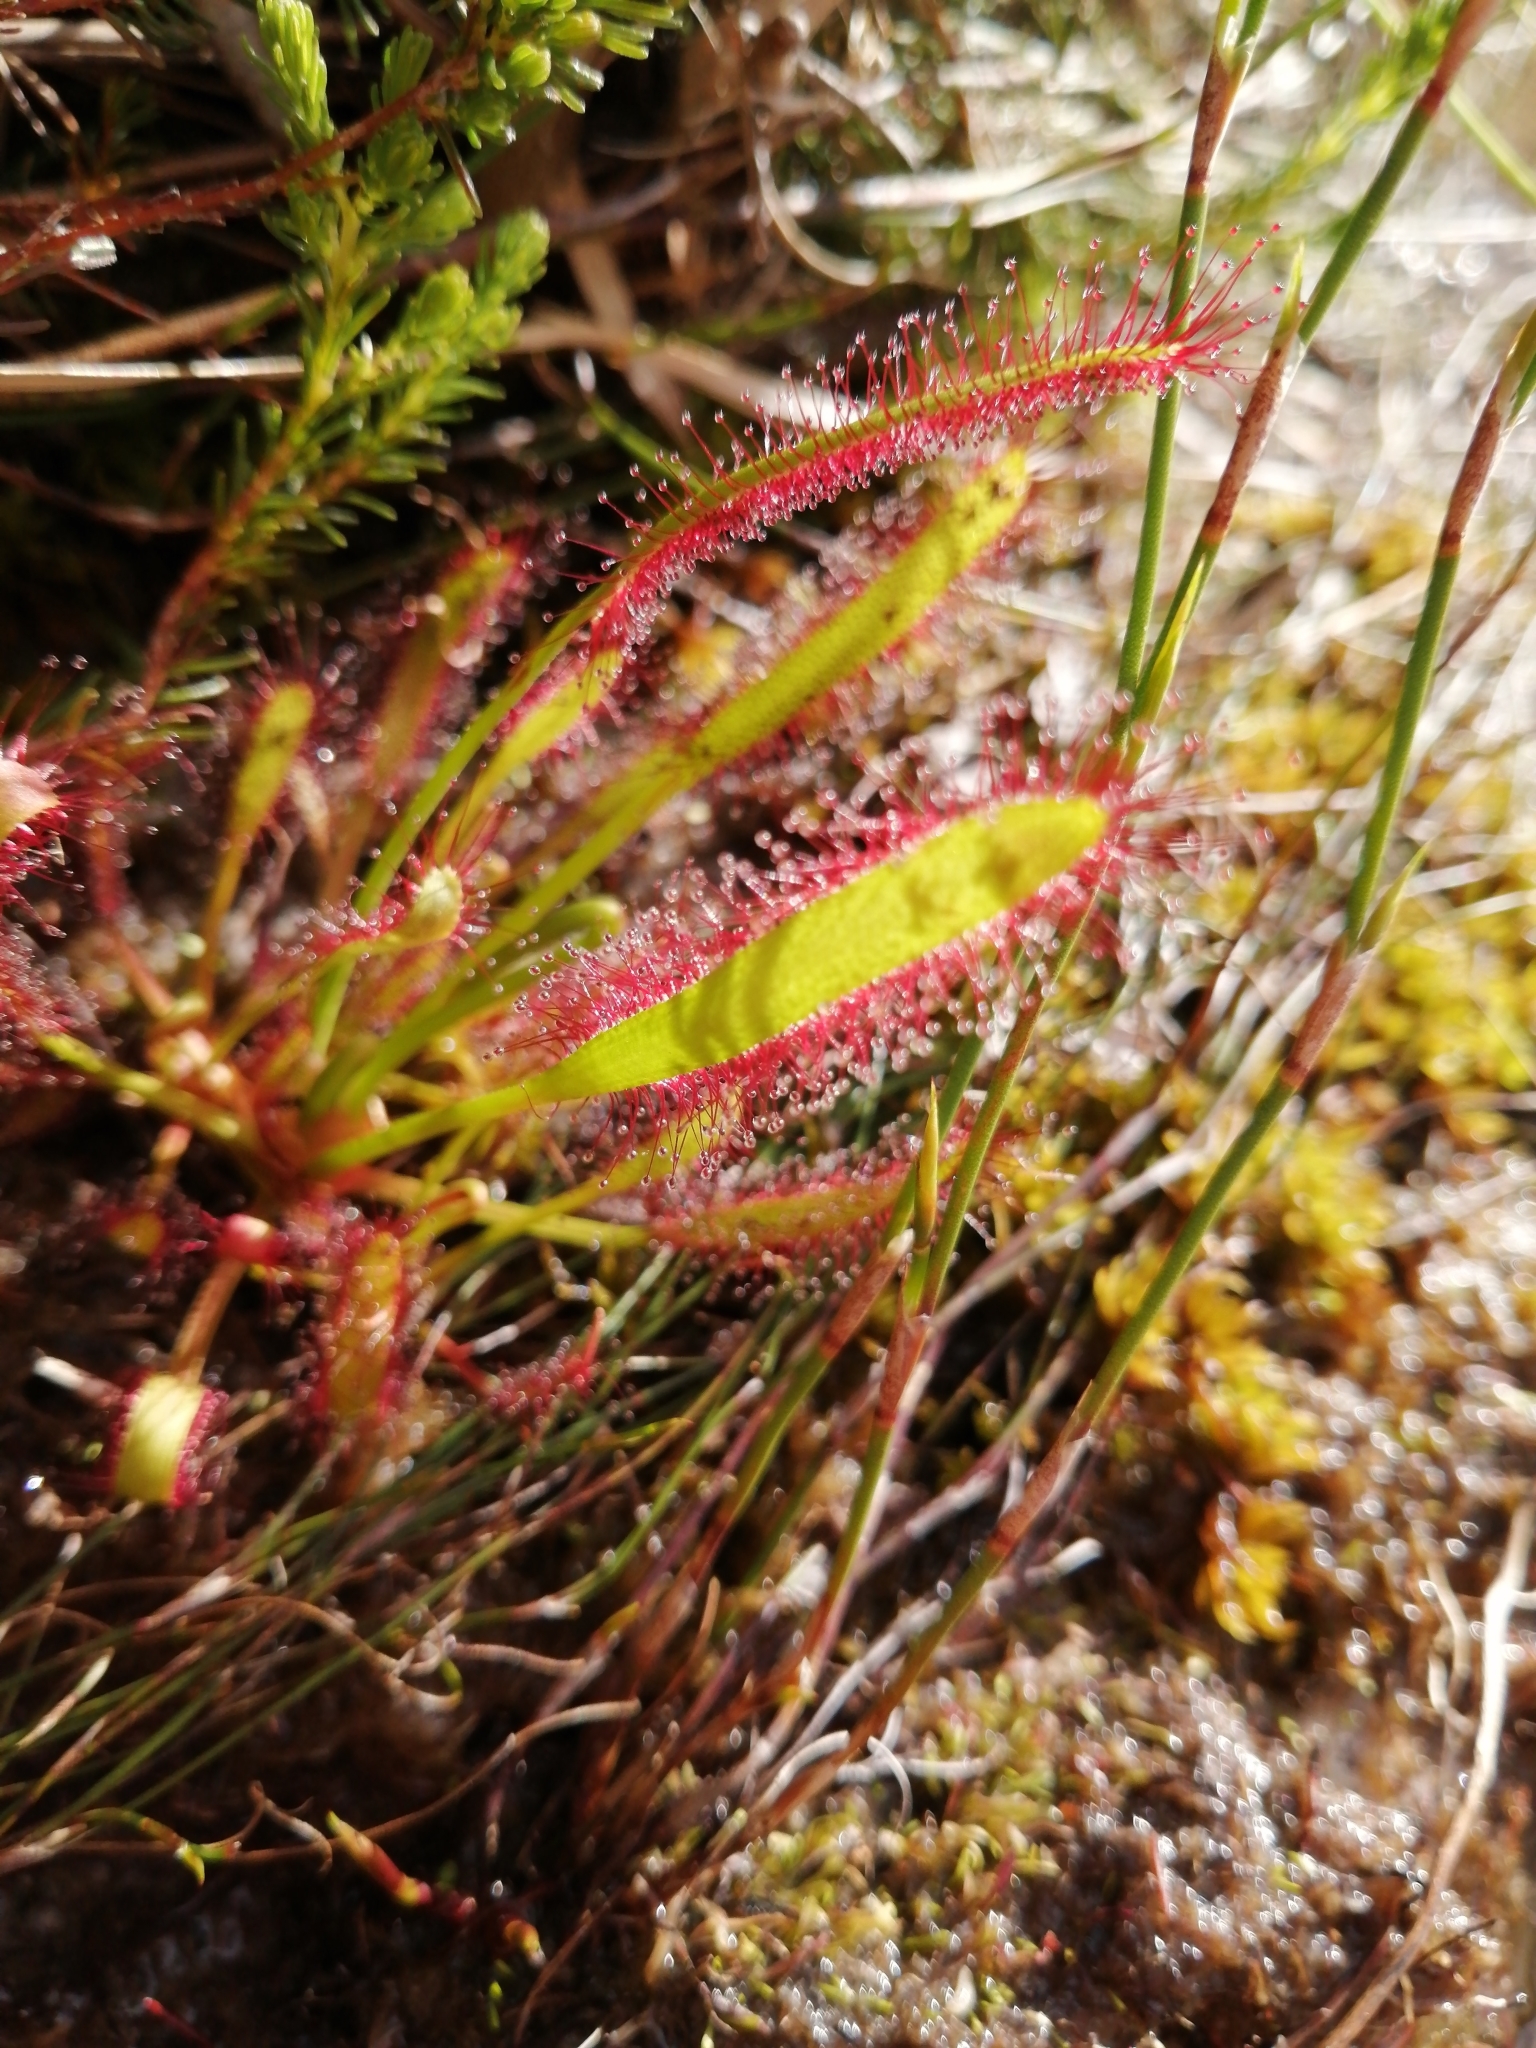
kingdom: Plantae
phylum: Tracheophyta
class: Magnoliopsida
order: Caryophyllales
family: Droseraceae
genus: Drosera
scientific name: Drosera capensis
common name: Cape sundew
